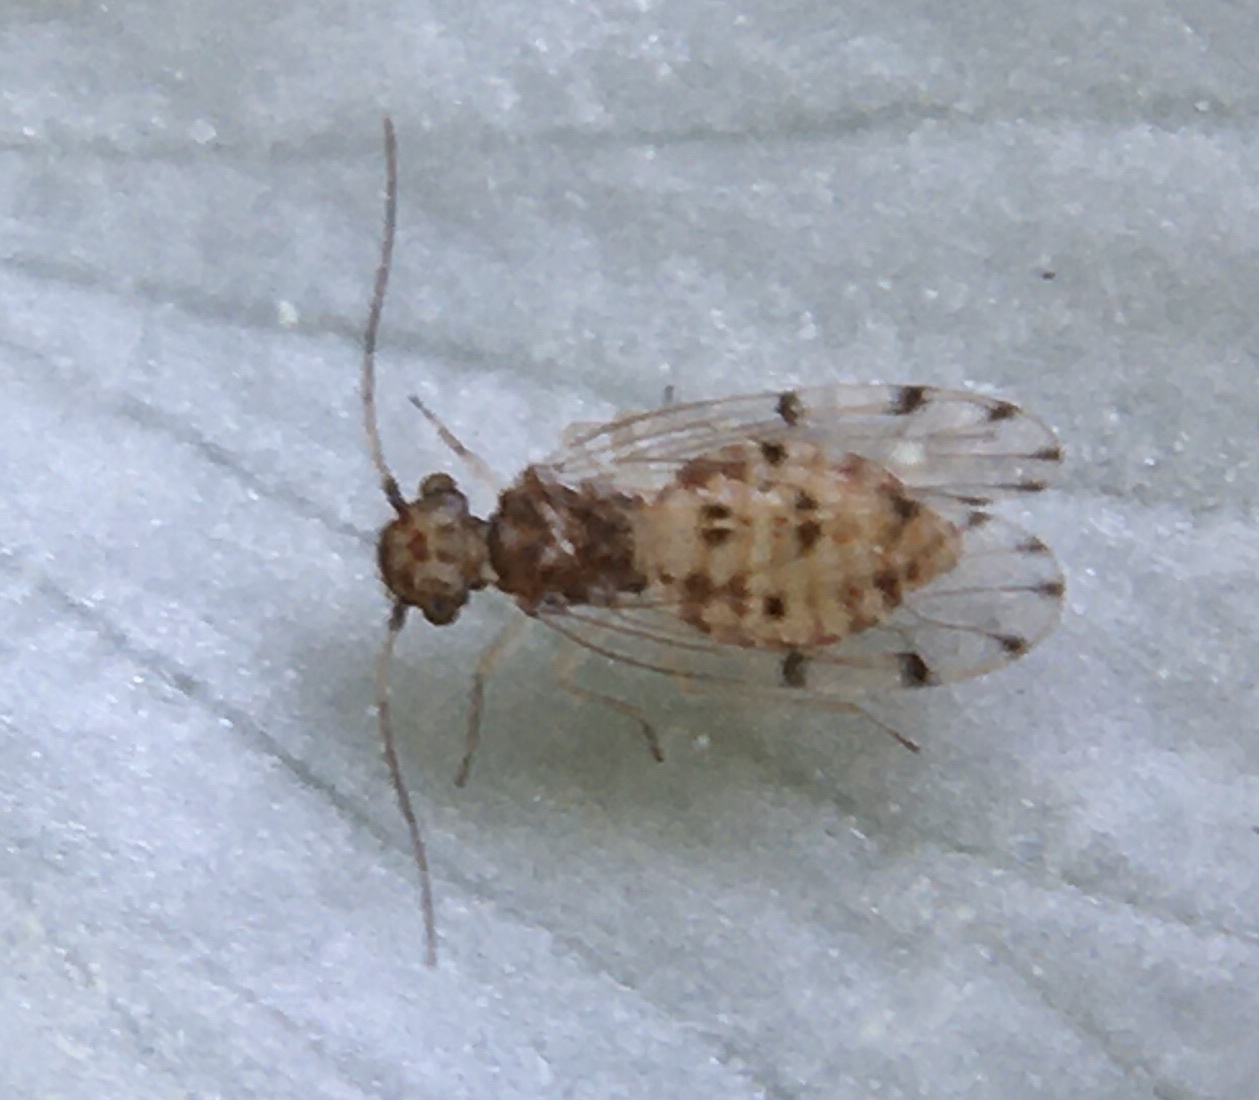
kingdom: Animalia
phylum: Arthropoda
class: Insecta
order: Psocodea
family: Ectopsocidae
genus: Ectopsocus
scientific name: Ectopsocus petersi
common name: Medium-sized bark louse
